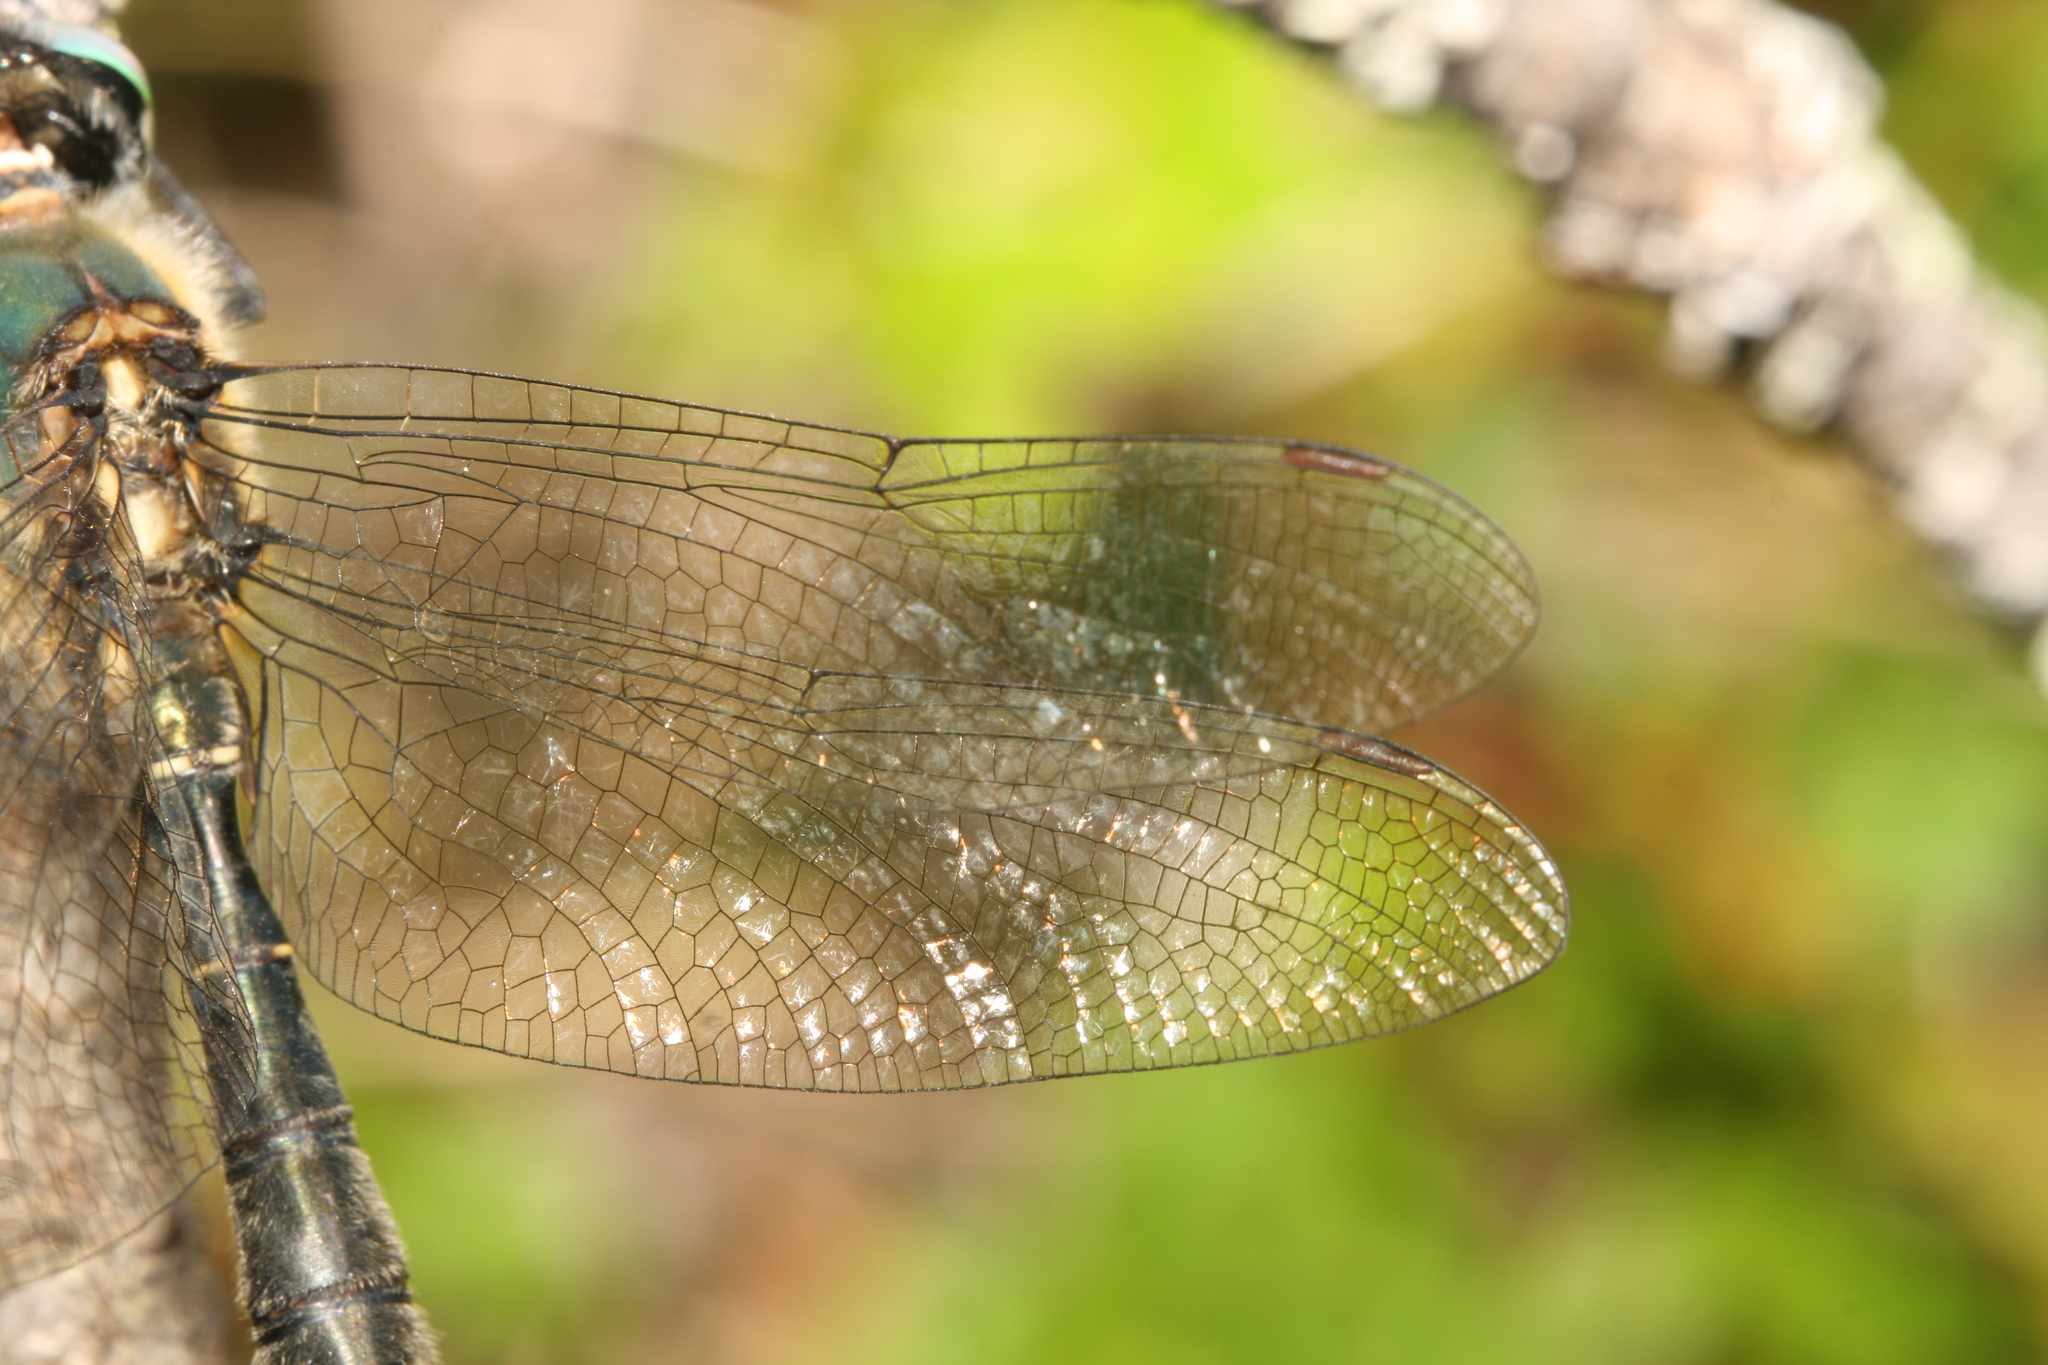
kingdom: Animalia
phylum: Arthropoda
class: Insecta
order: Odonata
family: Corduliidae
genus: Somatochlora
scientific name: Somatochlora alpestris
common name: Alpine emerald
